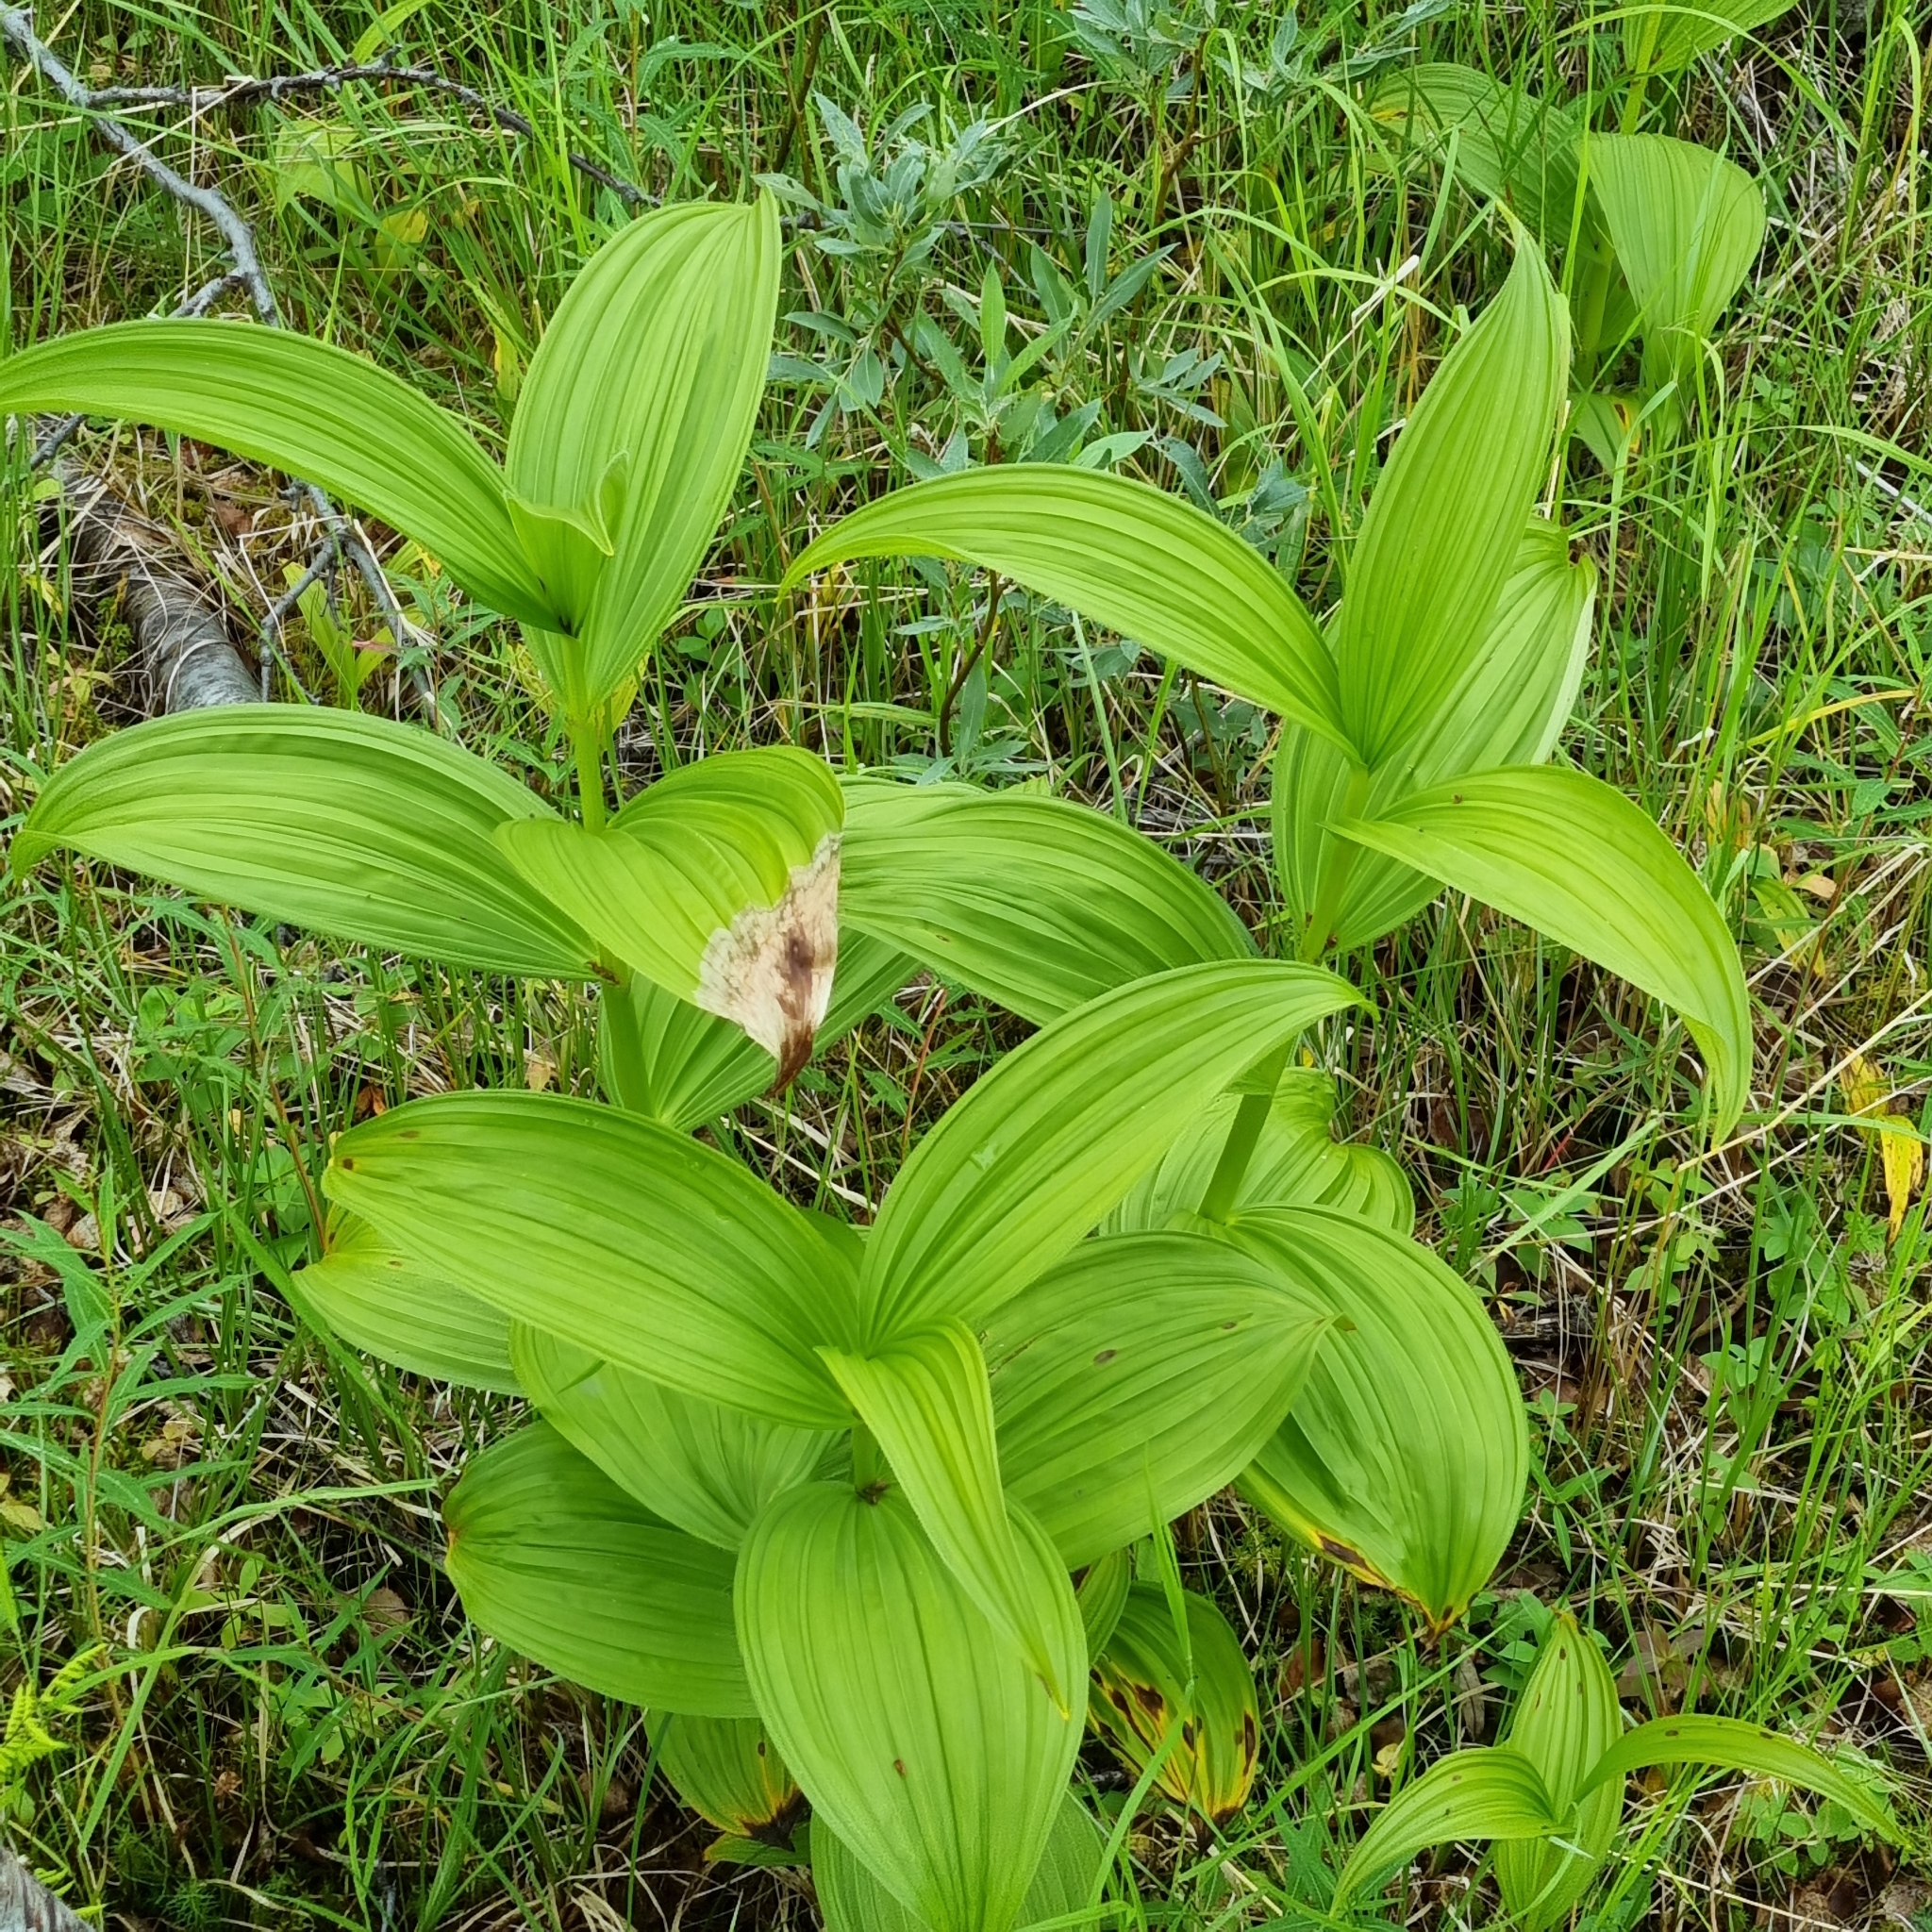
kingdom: Plantae
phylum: Tracheophyta
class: Liliopsida
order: Liliales
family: Melanthiaceae
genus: Veratrum
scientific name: Veratrum lobelianum
